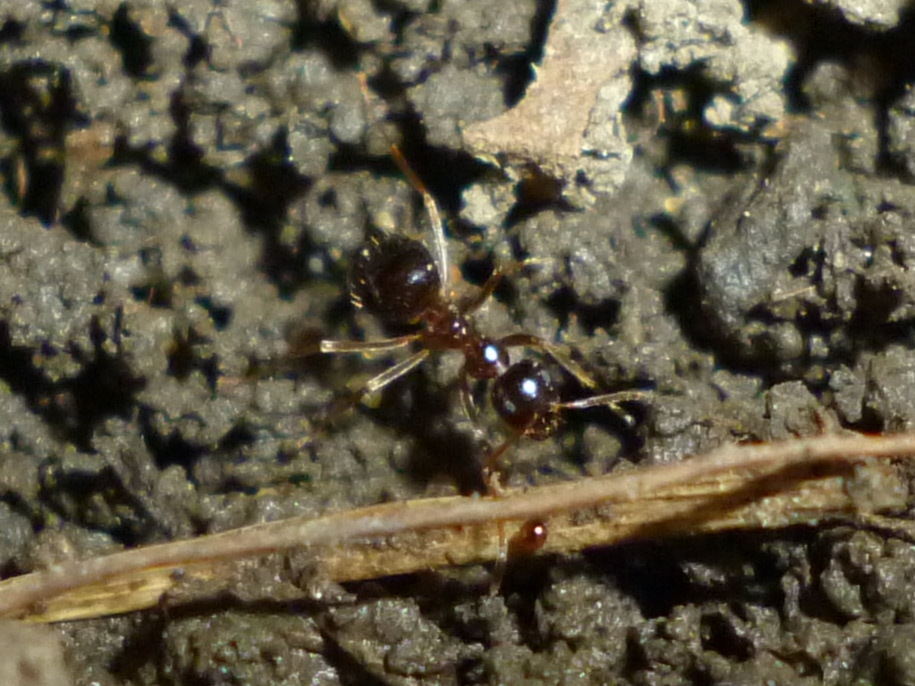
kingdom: Animalia
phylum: Arthropoda
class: Insecta
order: Hymenoptera
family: Formicidae
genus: Prenolepis
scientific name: Prenolepis imparis
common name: Small honey ant
